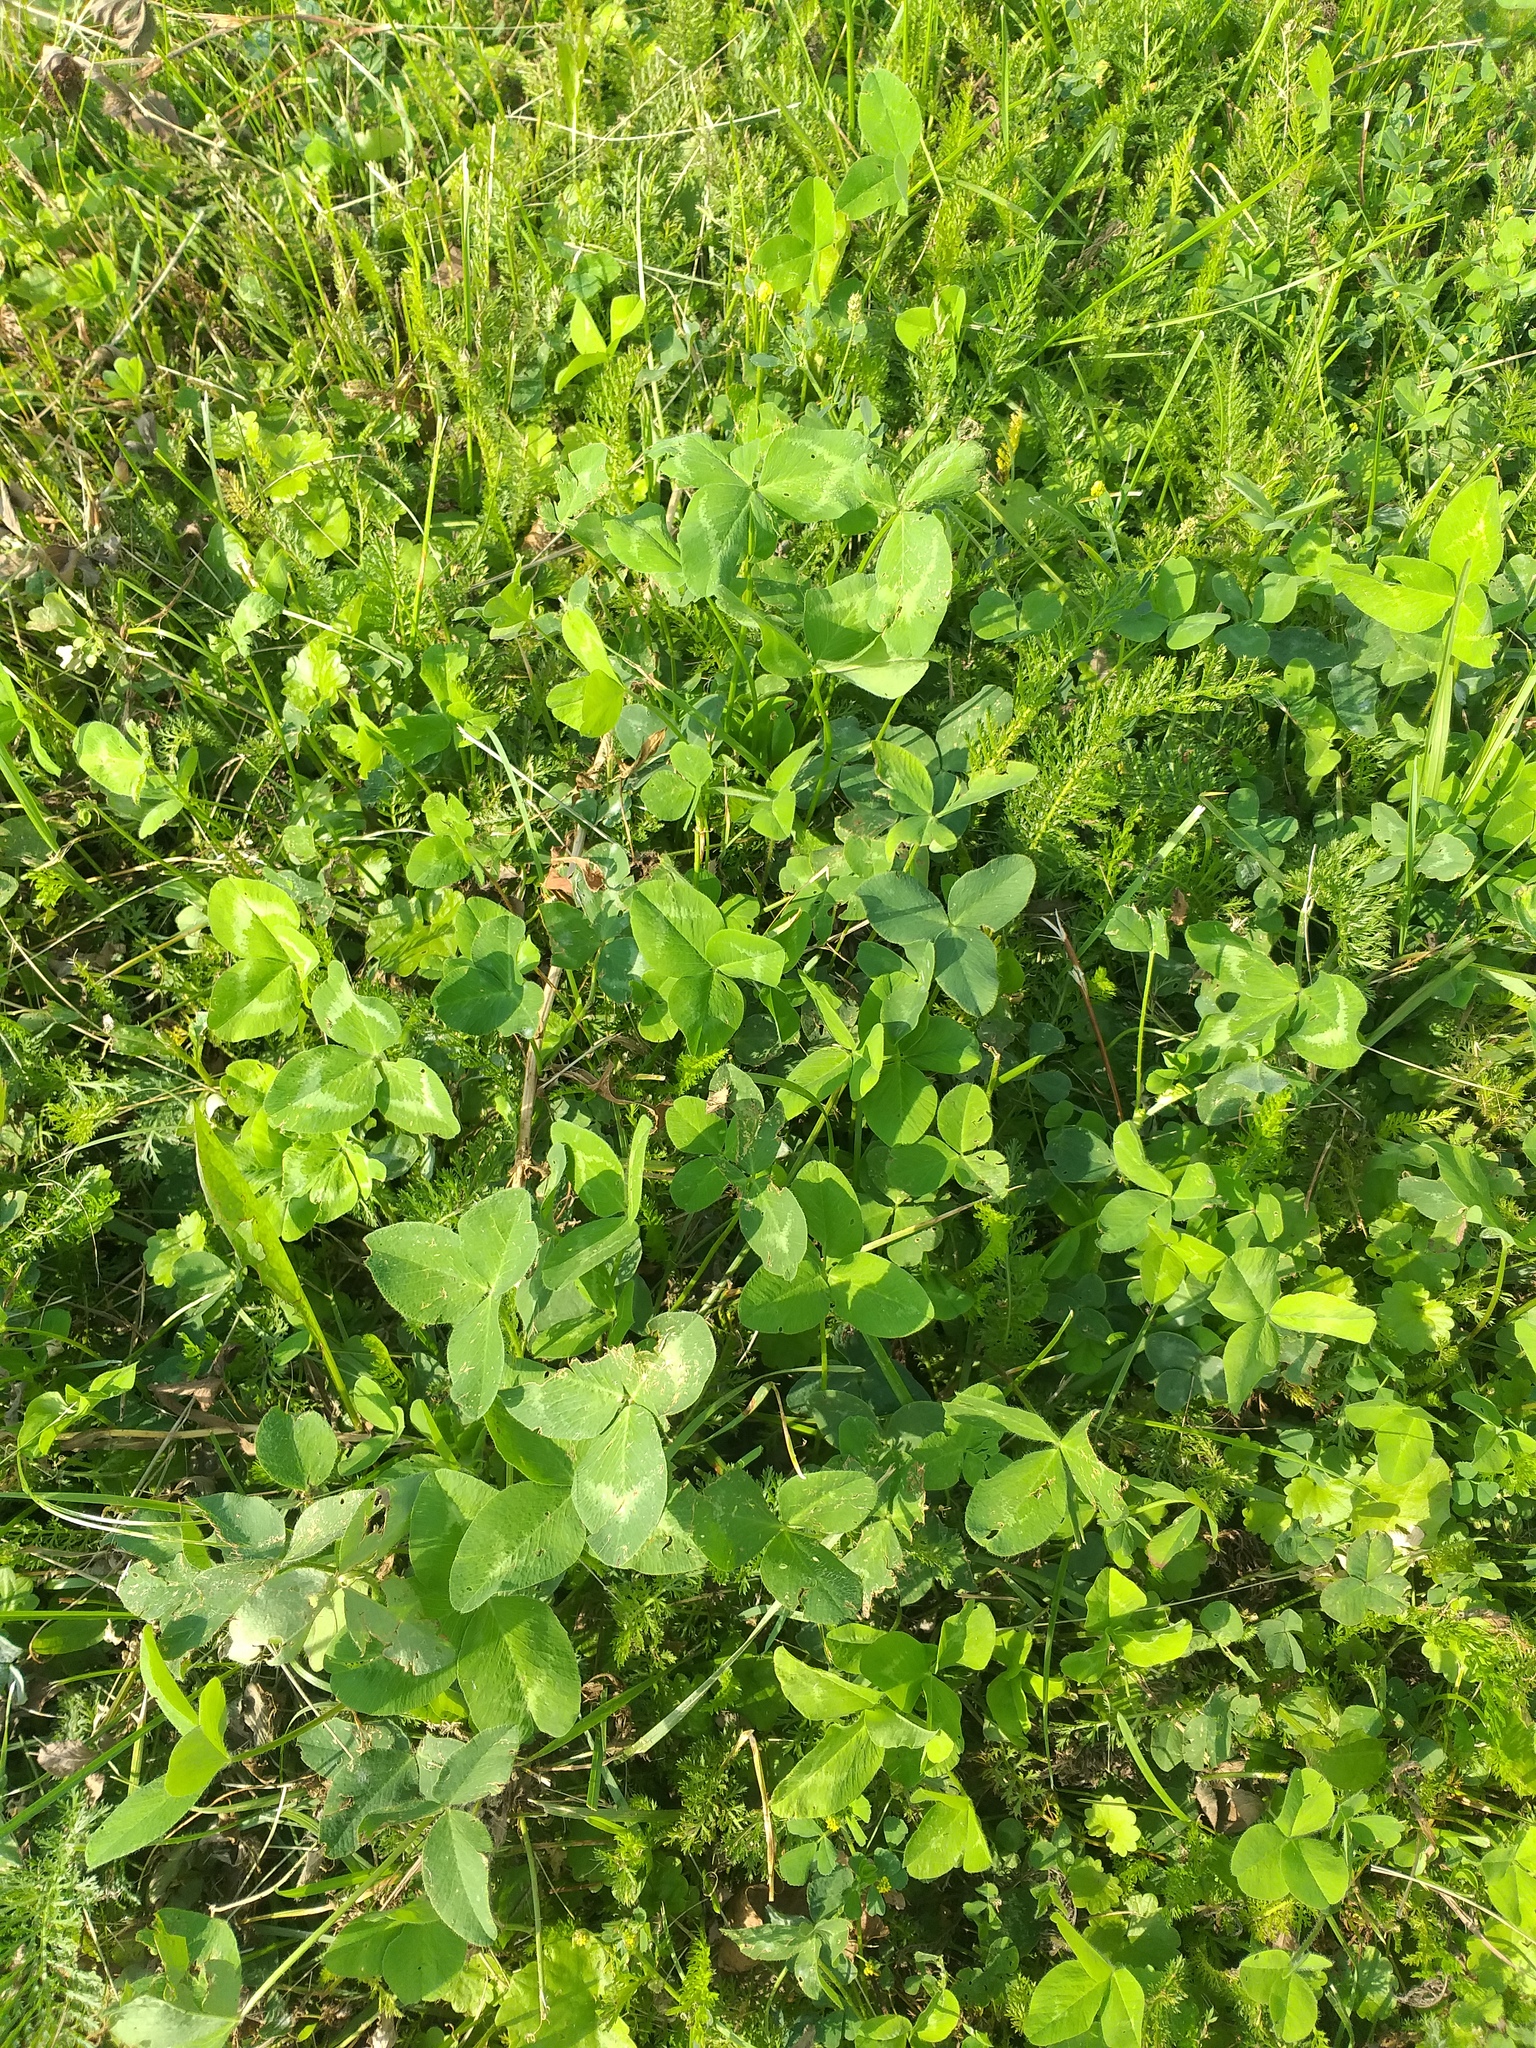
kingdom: Plantae
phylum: Tracheophyta
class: Magnoliopsida
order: Fabales
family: Fabaceae
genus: Trifolium
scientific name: Trifolium pratense
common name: Red clover
